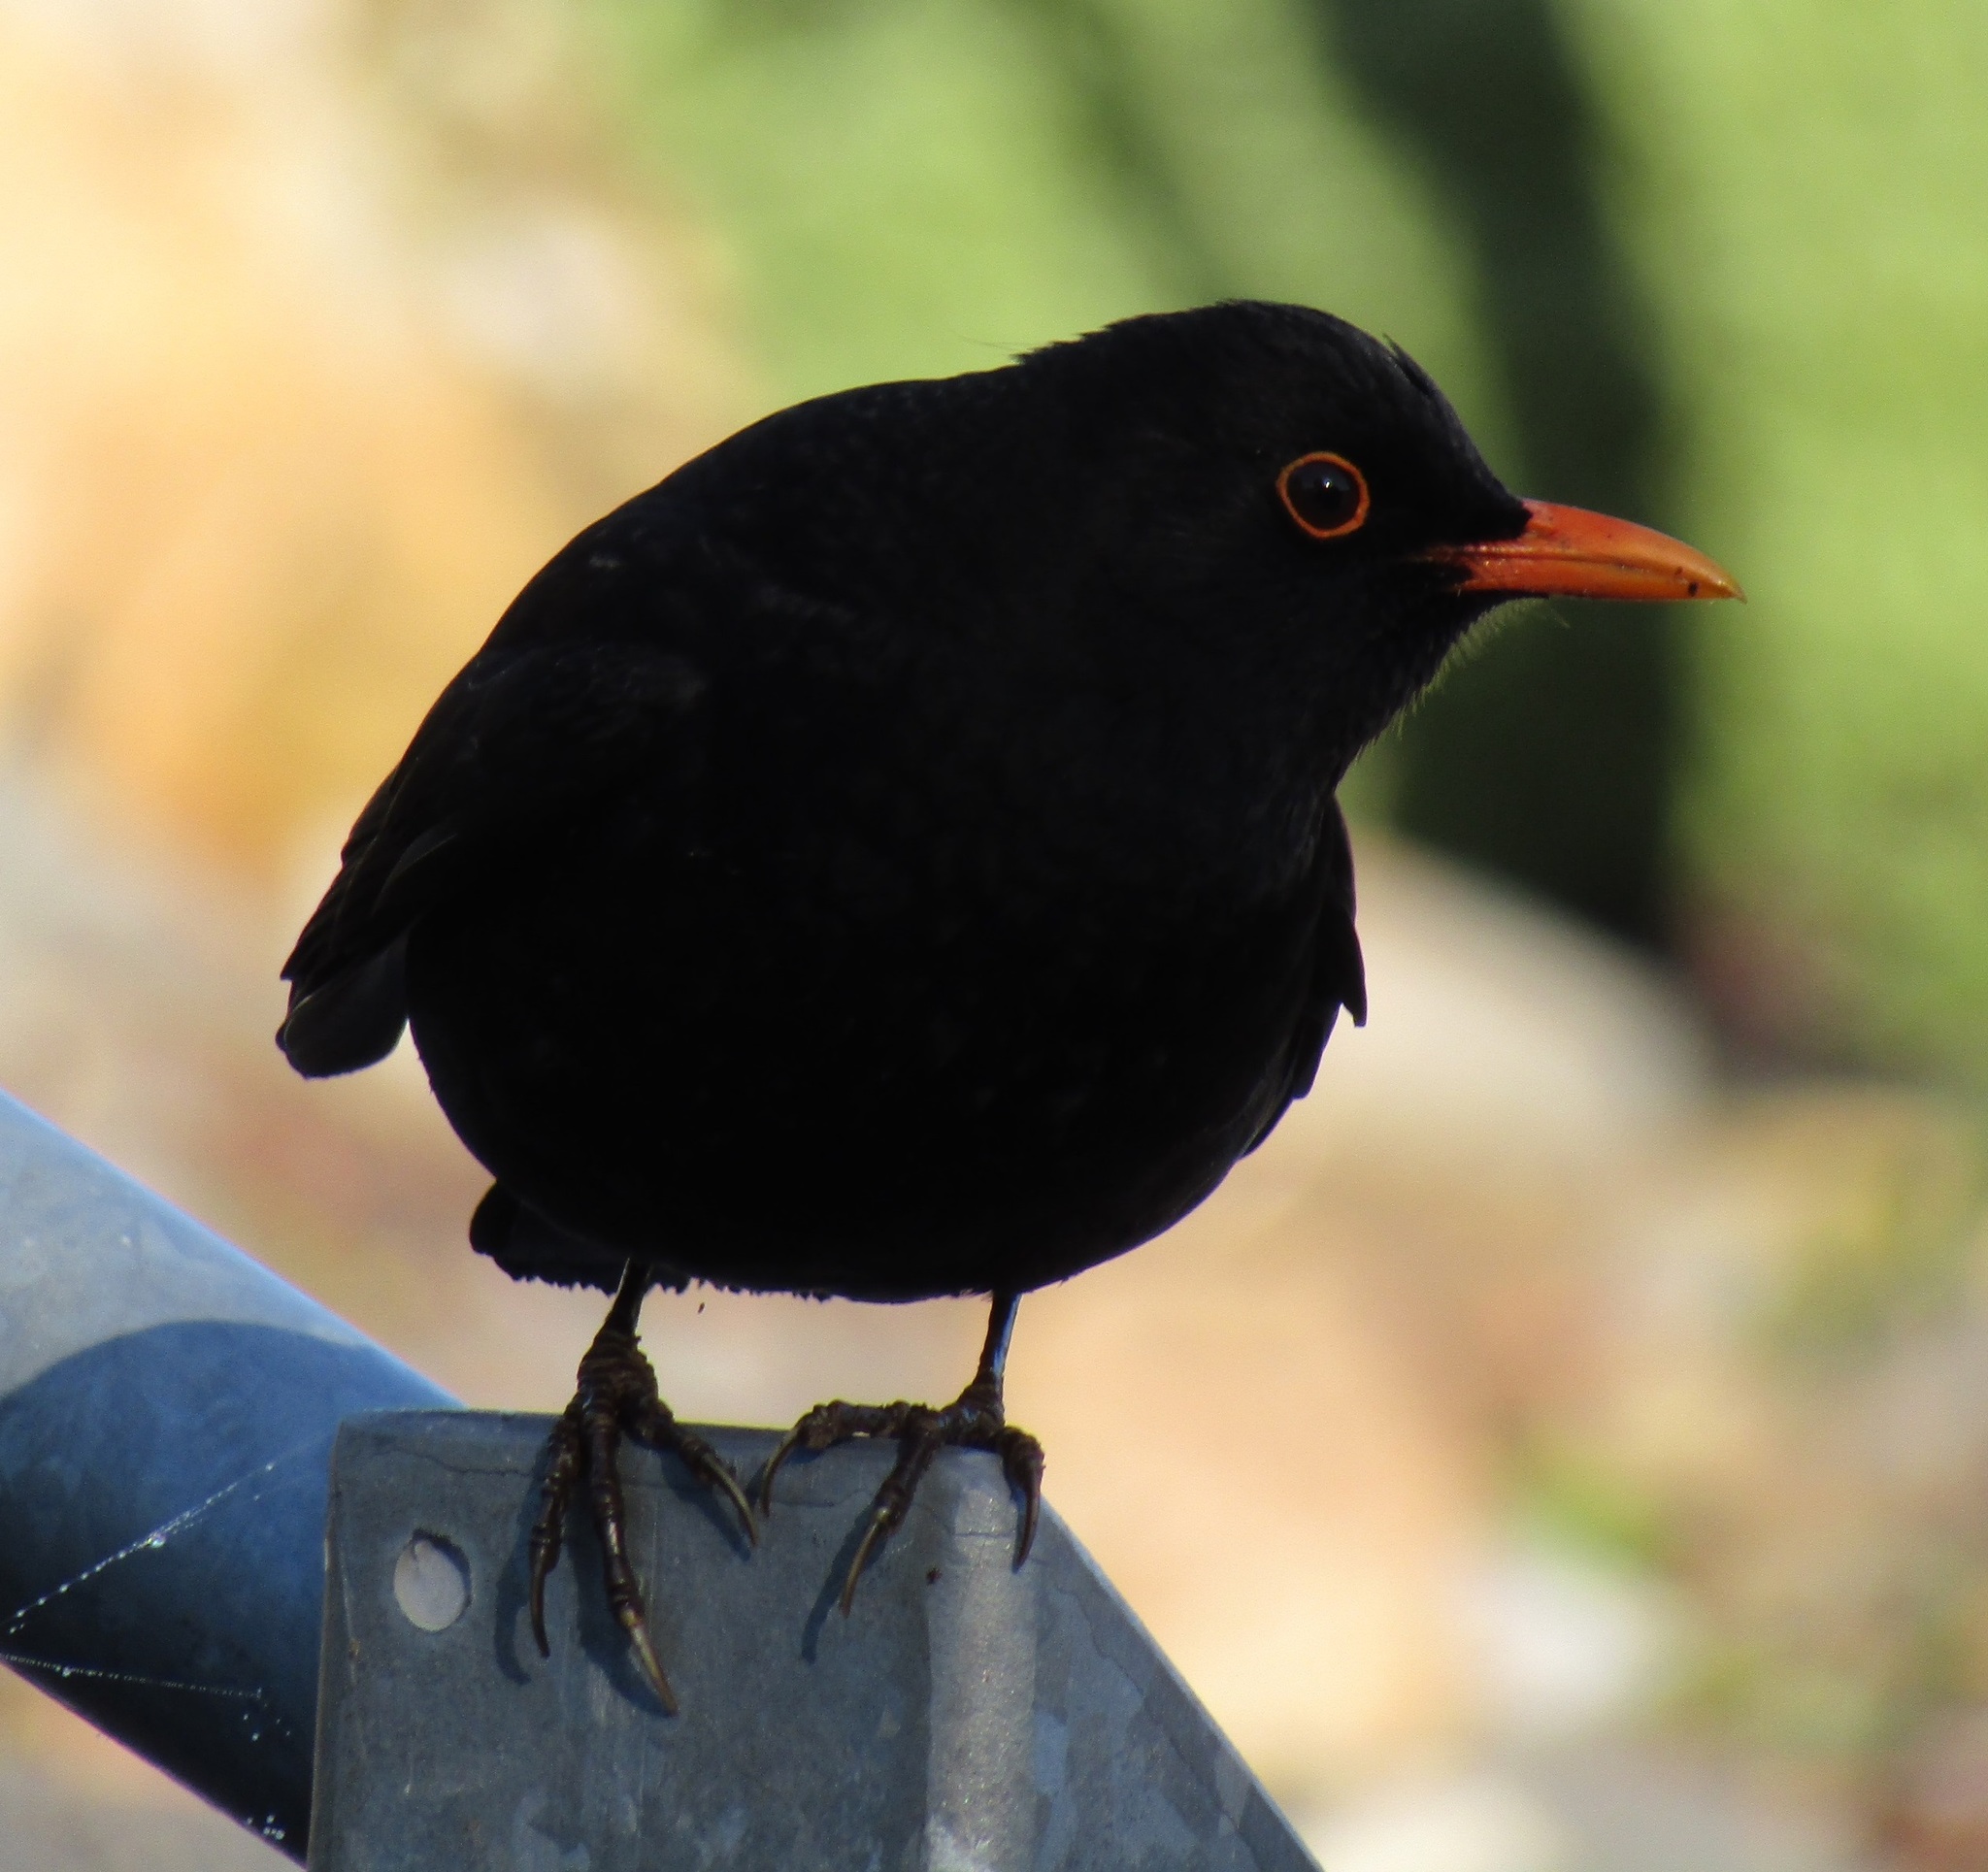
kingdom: Animalia
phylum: Chordata
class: Aves
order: Passeriformes
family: Turdidae
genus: Turdus
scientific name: Turdus merula
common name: Common blackbird
